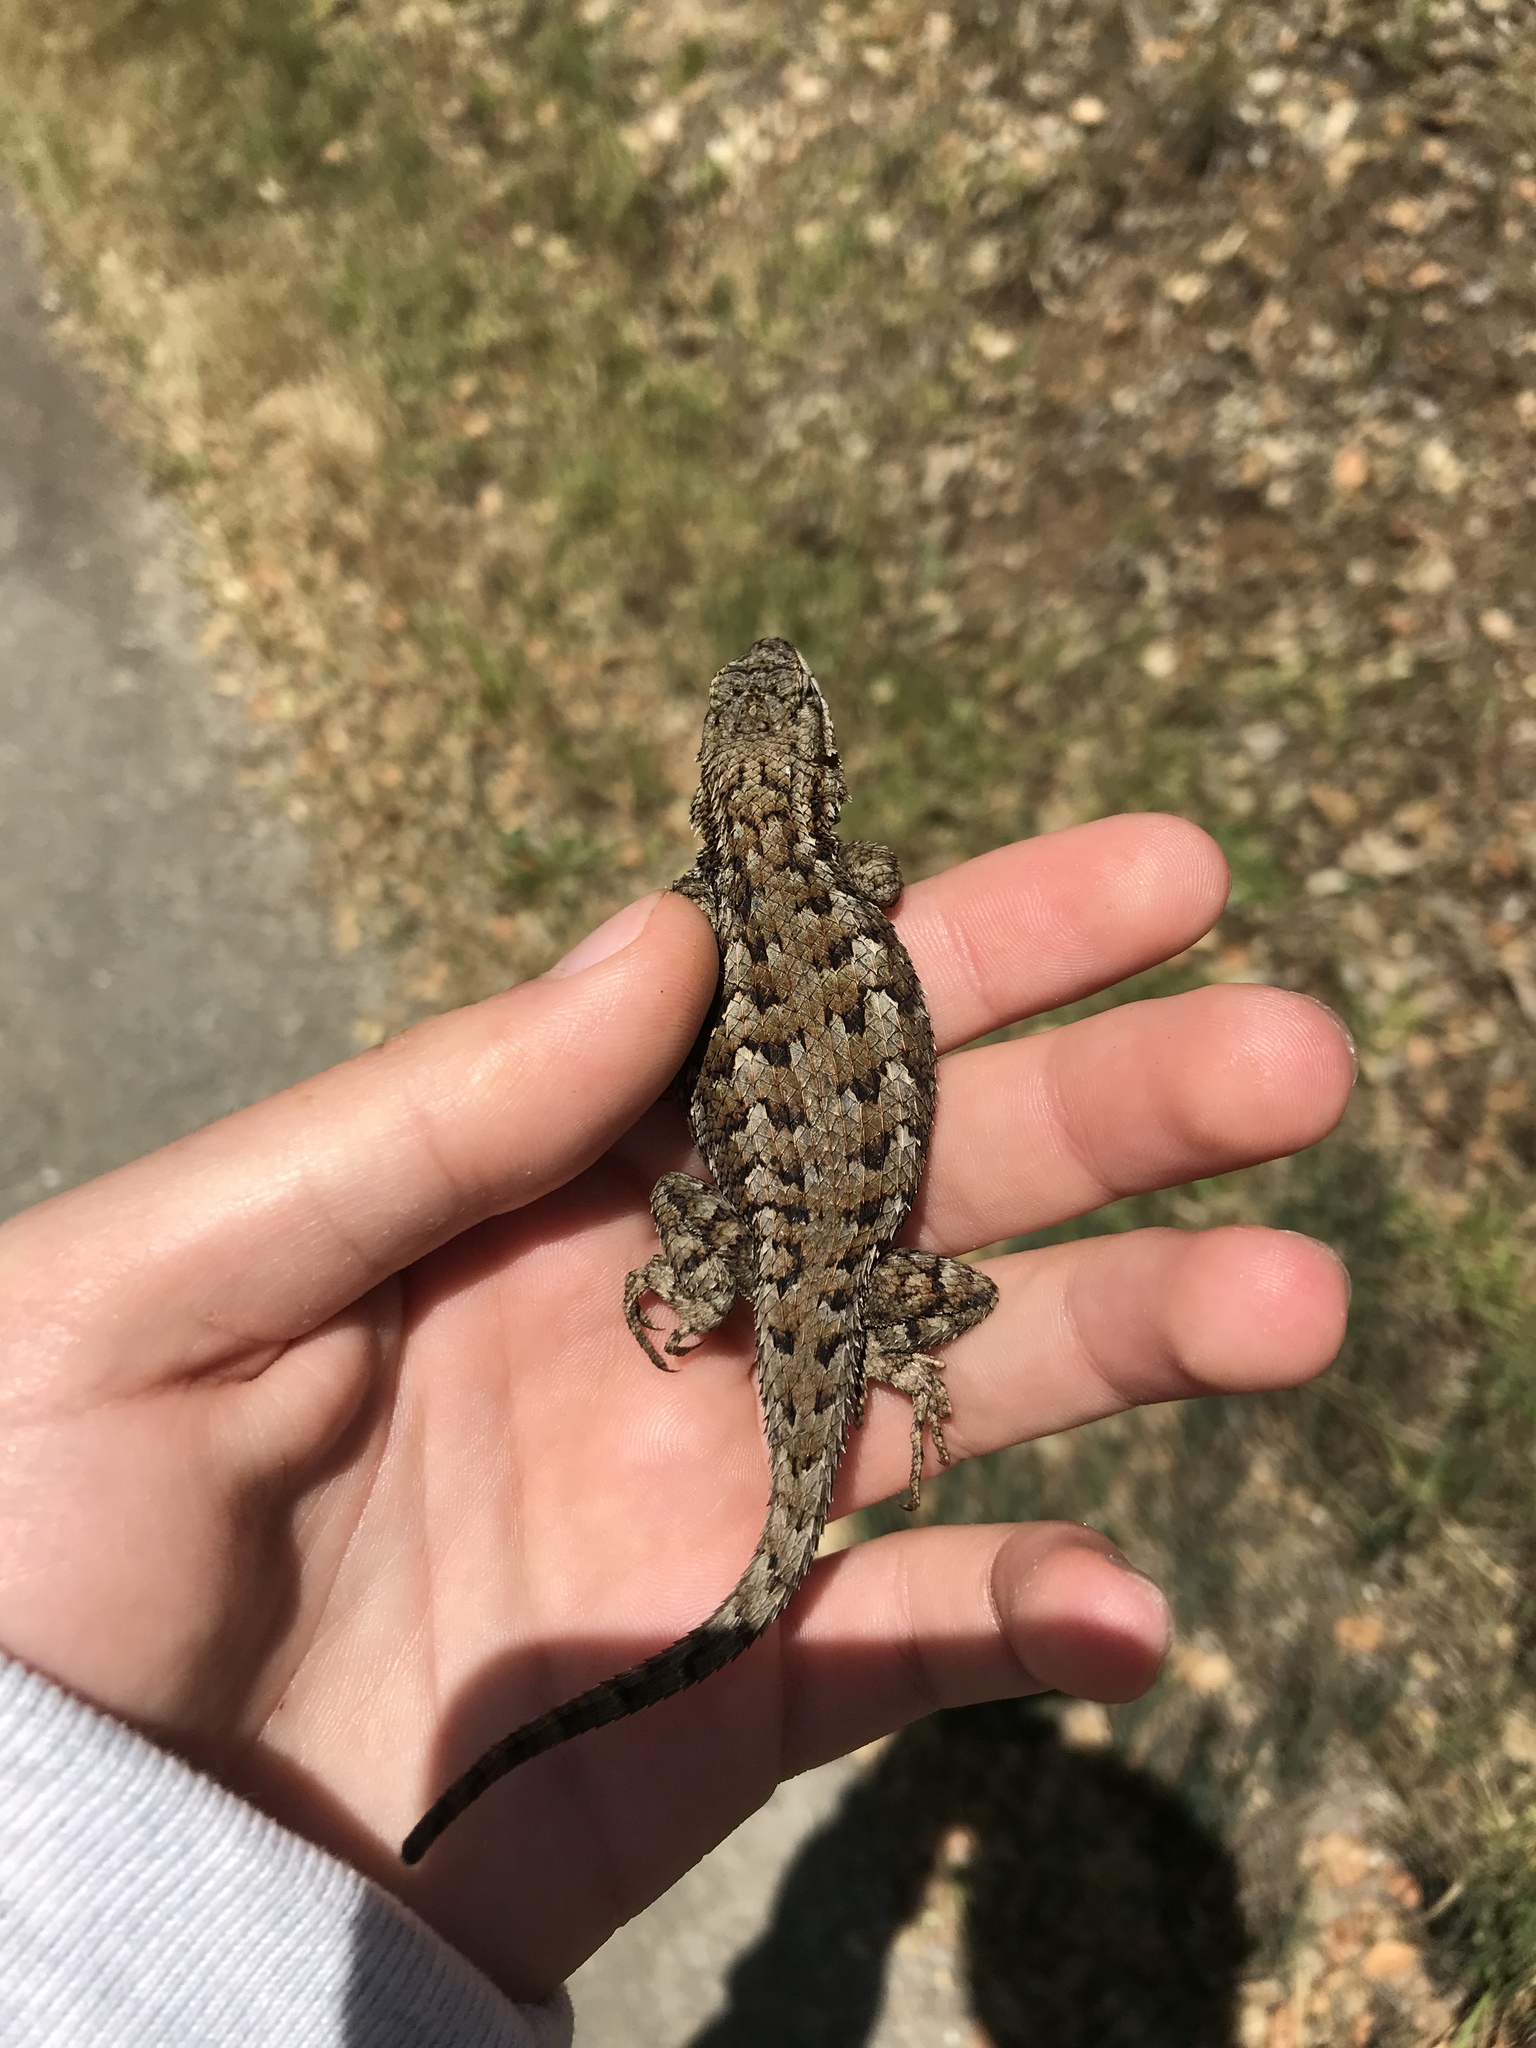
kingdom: Animalia
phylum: Chordata
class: Squamata
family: Phrynosomatidae
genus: Sceloporus
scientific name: Sceloporus occidentalis
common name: Western fence lizard
